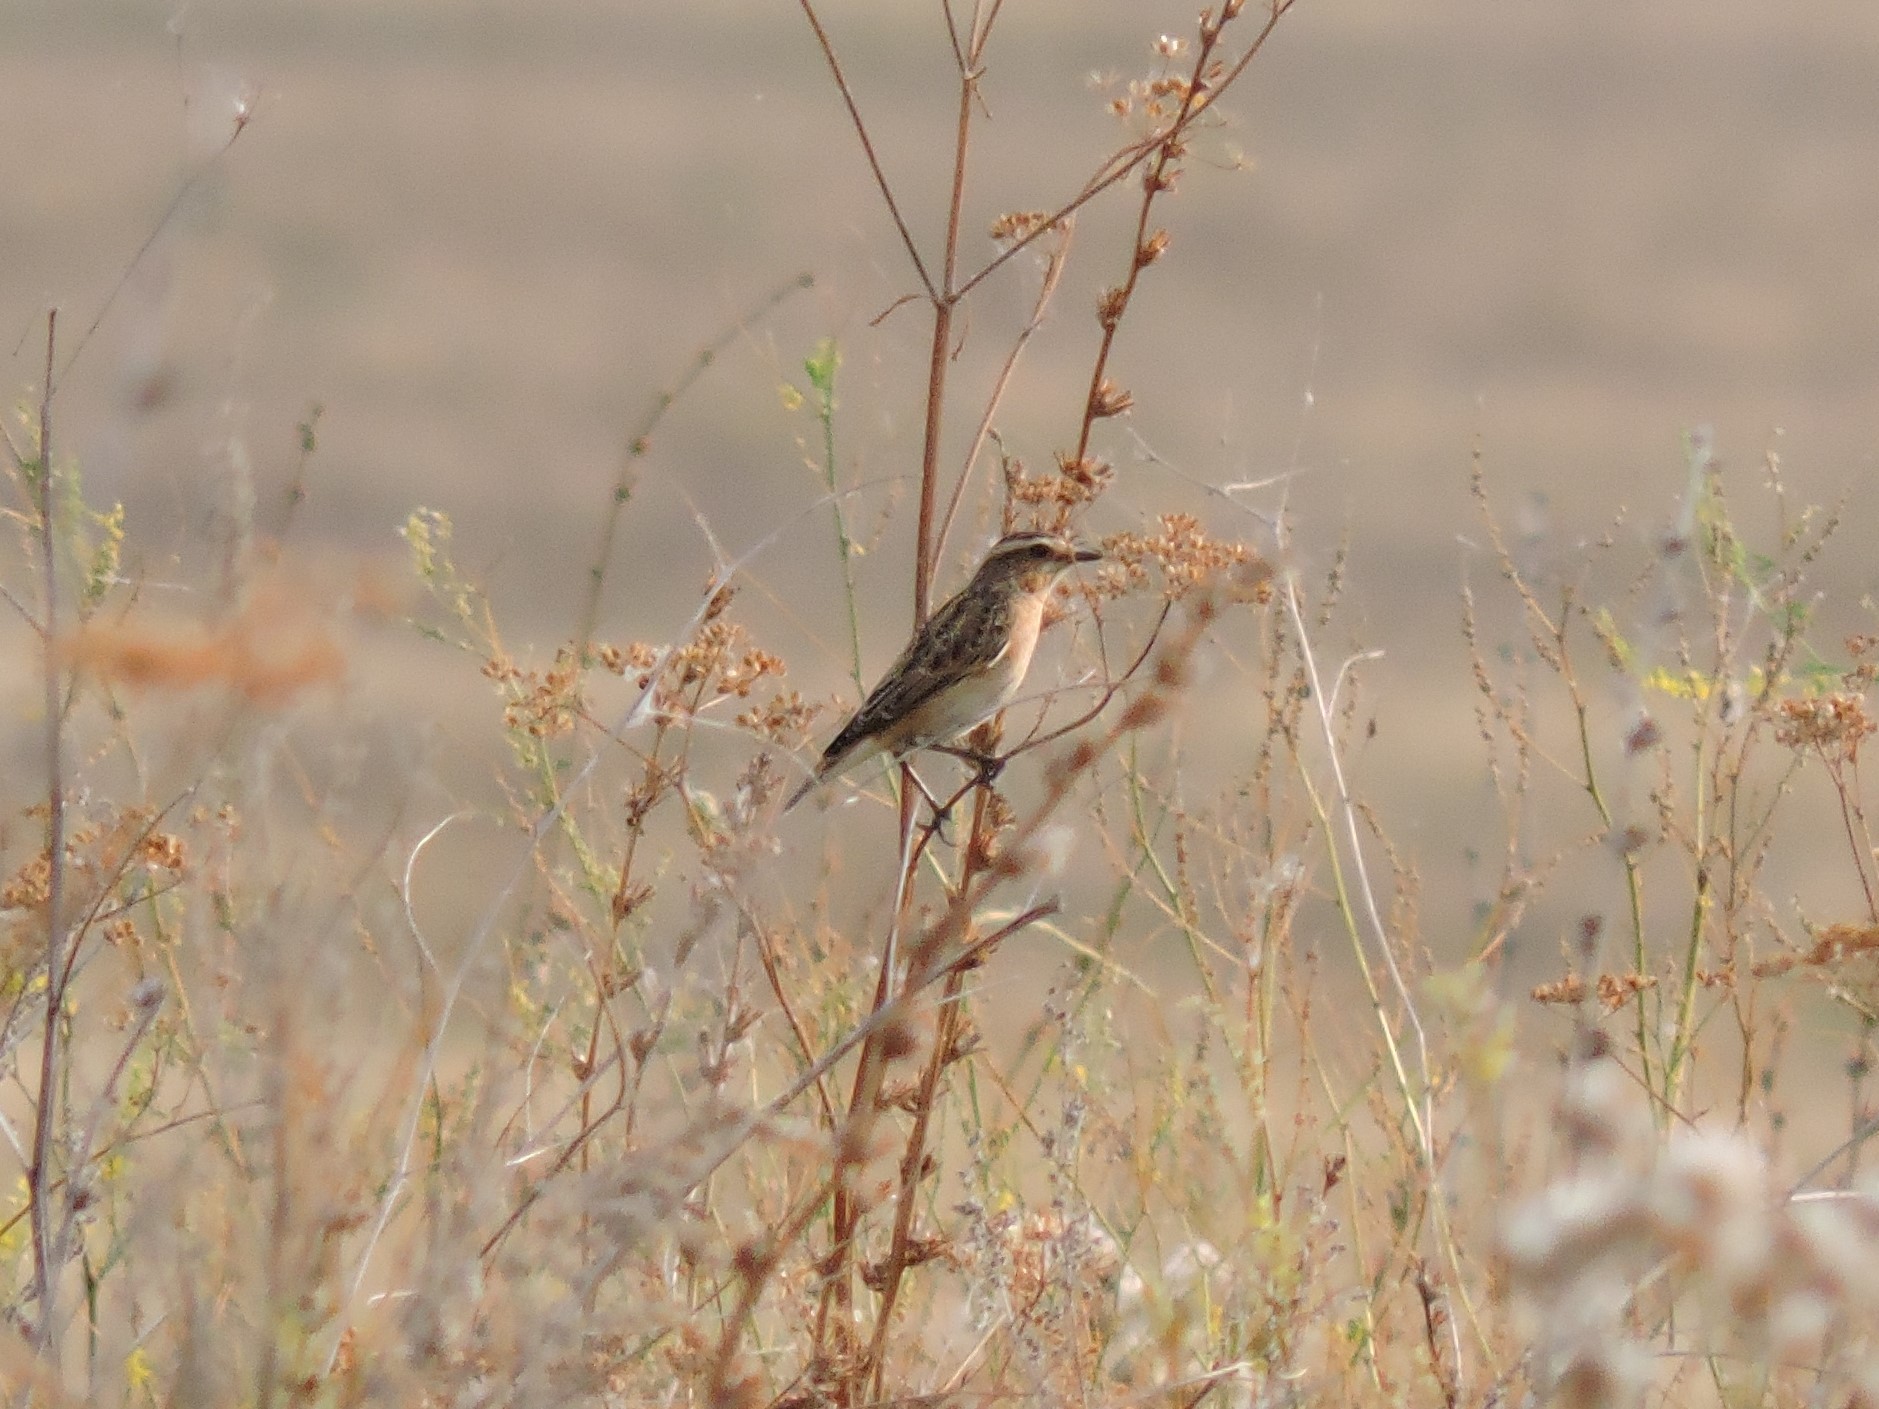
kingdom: Animalia
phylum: Chordata
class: Aves
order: Passeriformes
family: Muscicapidae
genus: Saxicola
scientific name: Saxicola rubetra
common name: Whinchat
